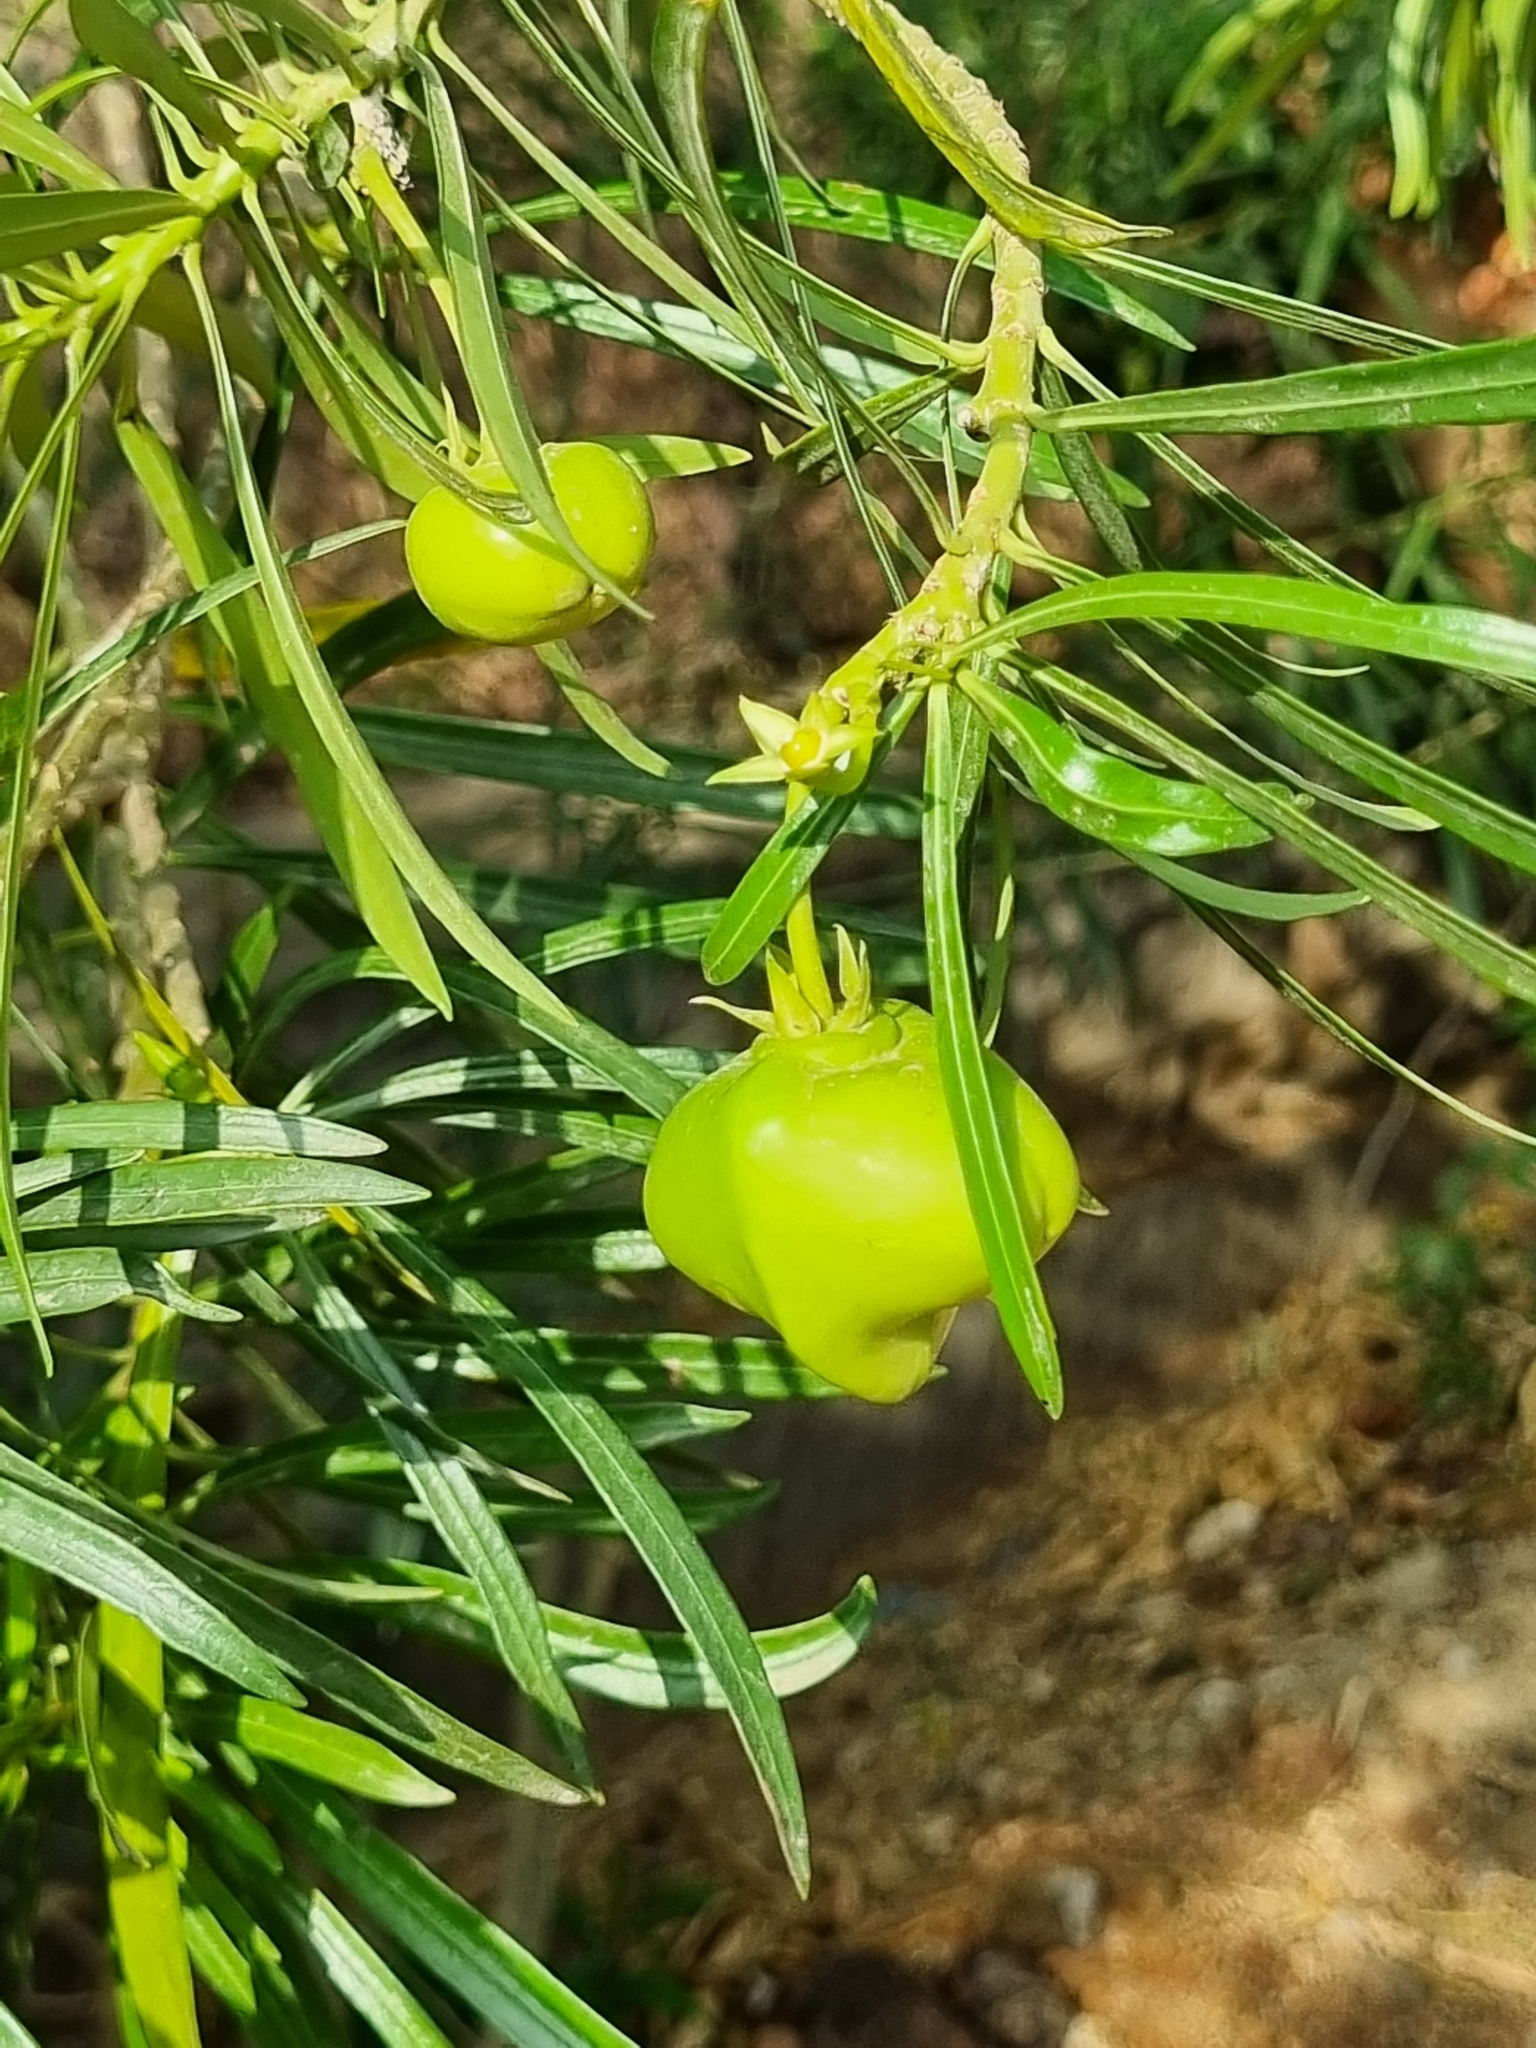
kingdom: Plantae
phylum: Tracheophyta
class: Magnoliopsida
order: Gentianales
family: Apocynaceae
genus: Cascabela
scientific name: Cascabela thevetia
